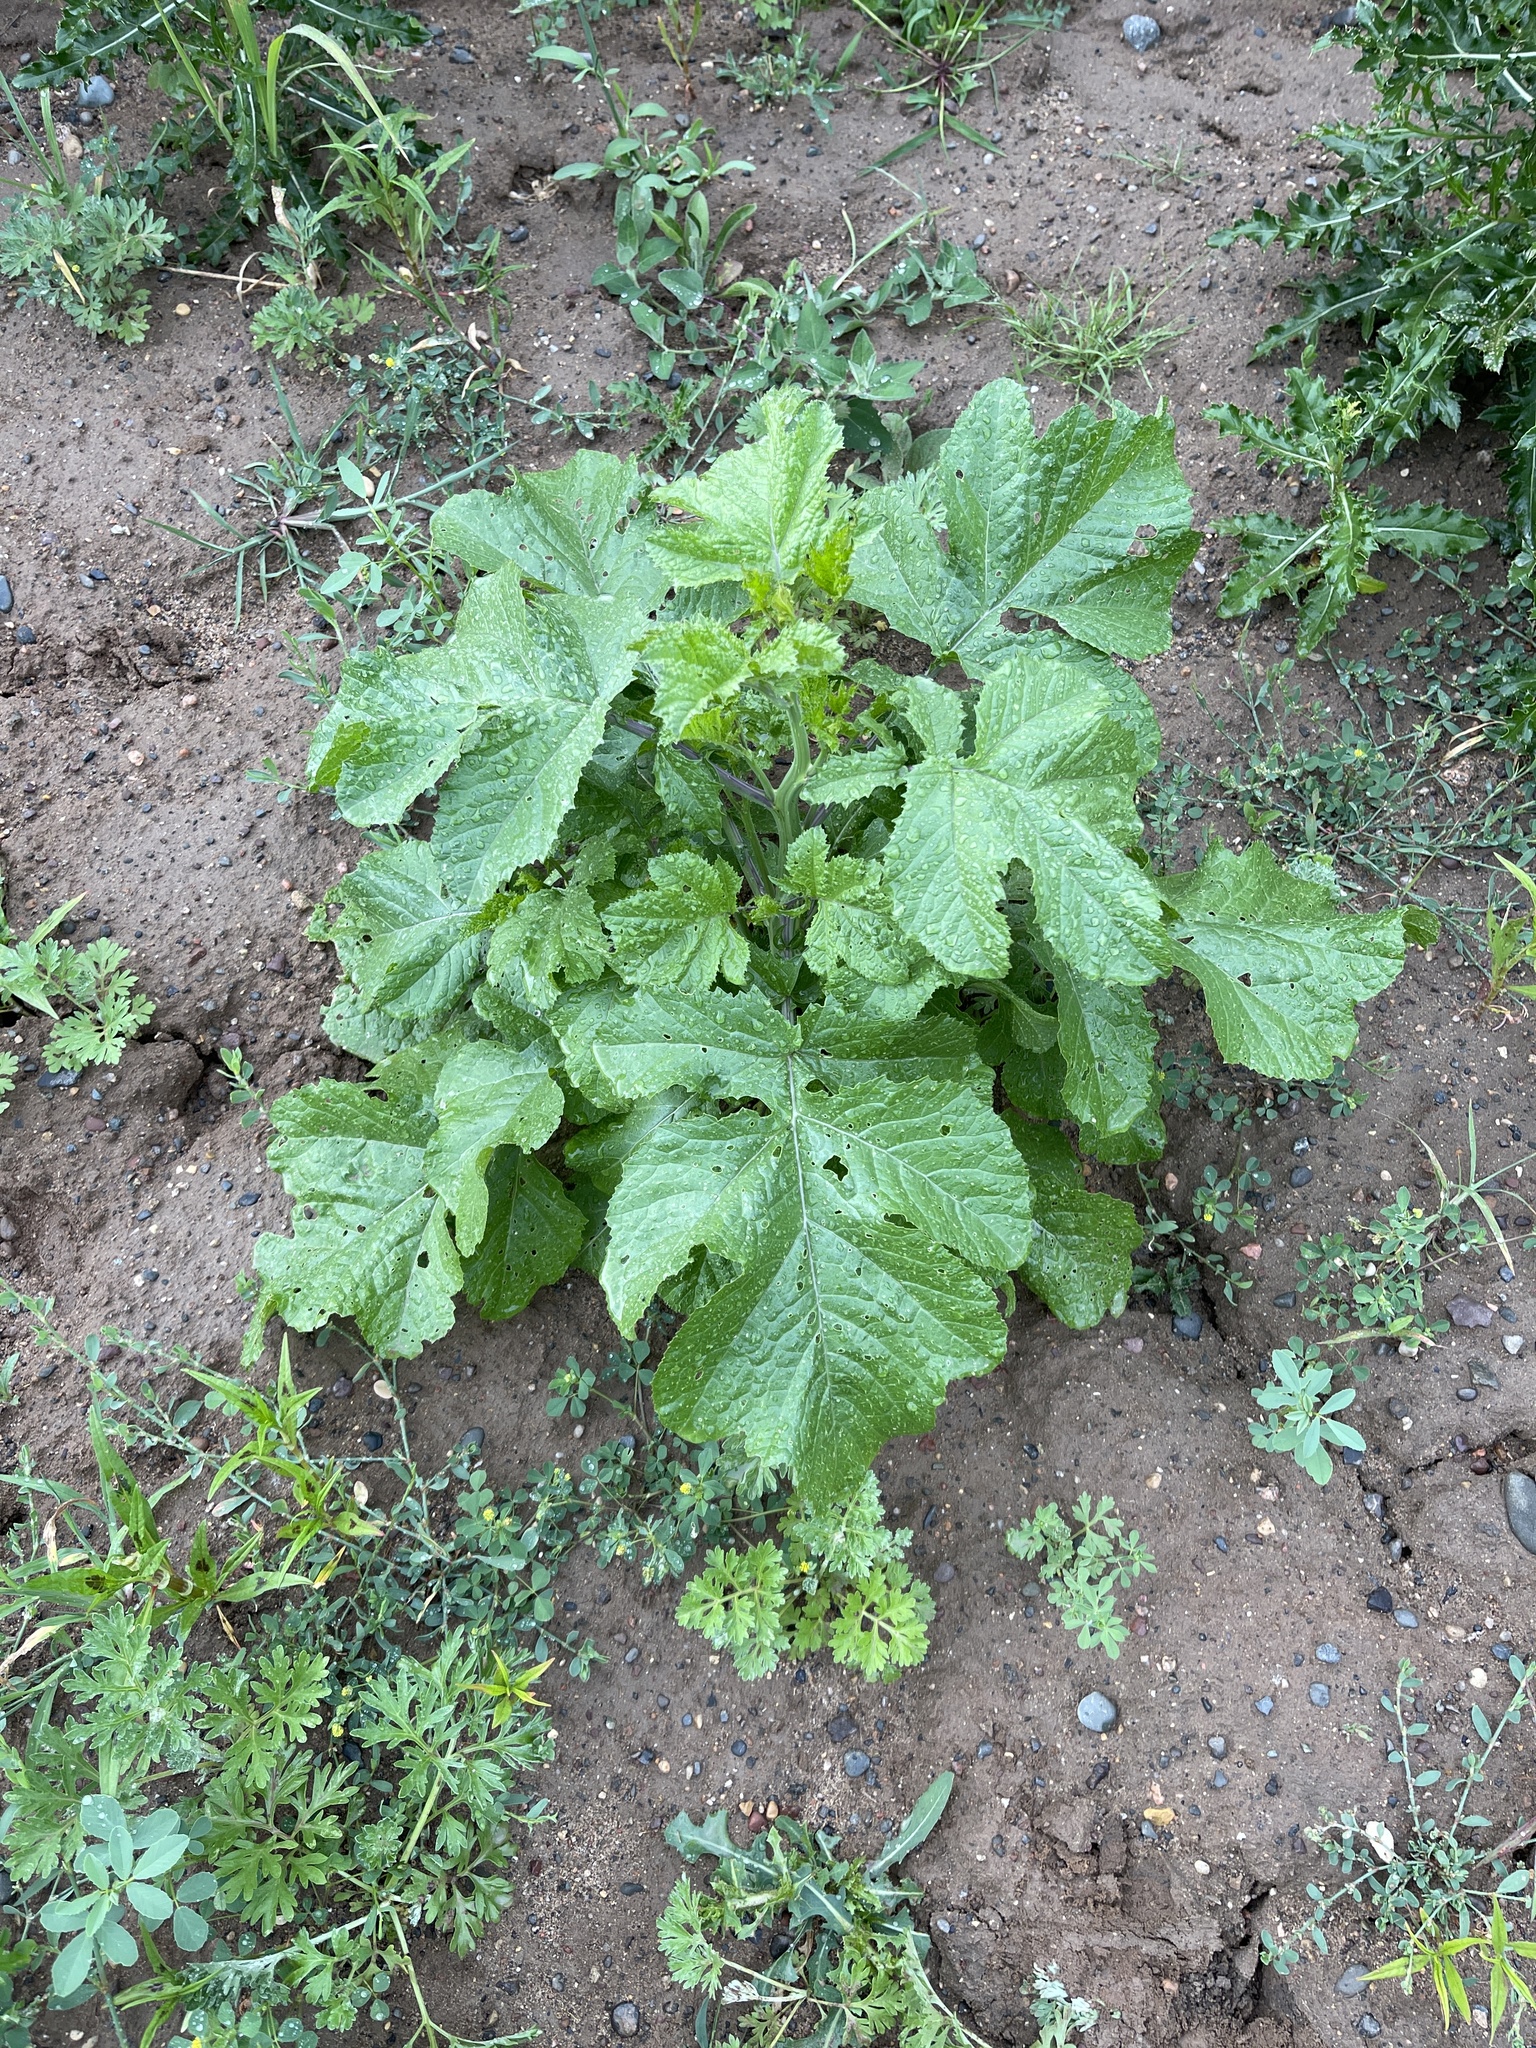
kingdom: Plantae
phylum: Tracheophyta
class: Magnoliopsida
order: Brassicales
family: Brassicaceae
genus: Brassica
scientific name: Brassica nigra
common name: Black mustard
